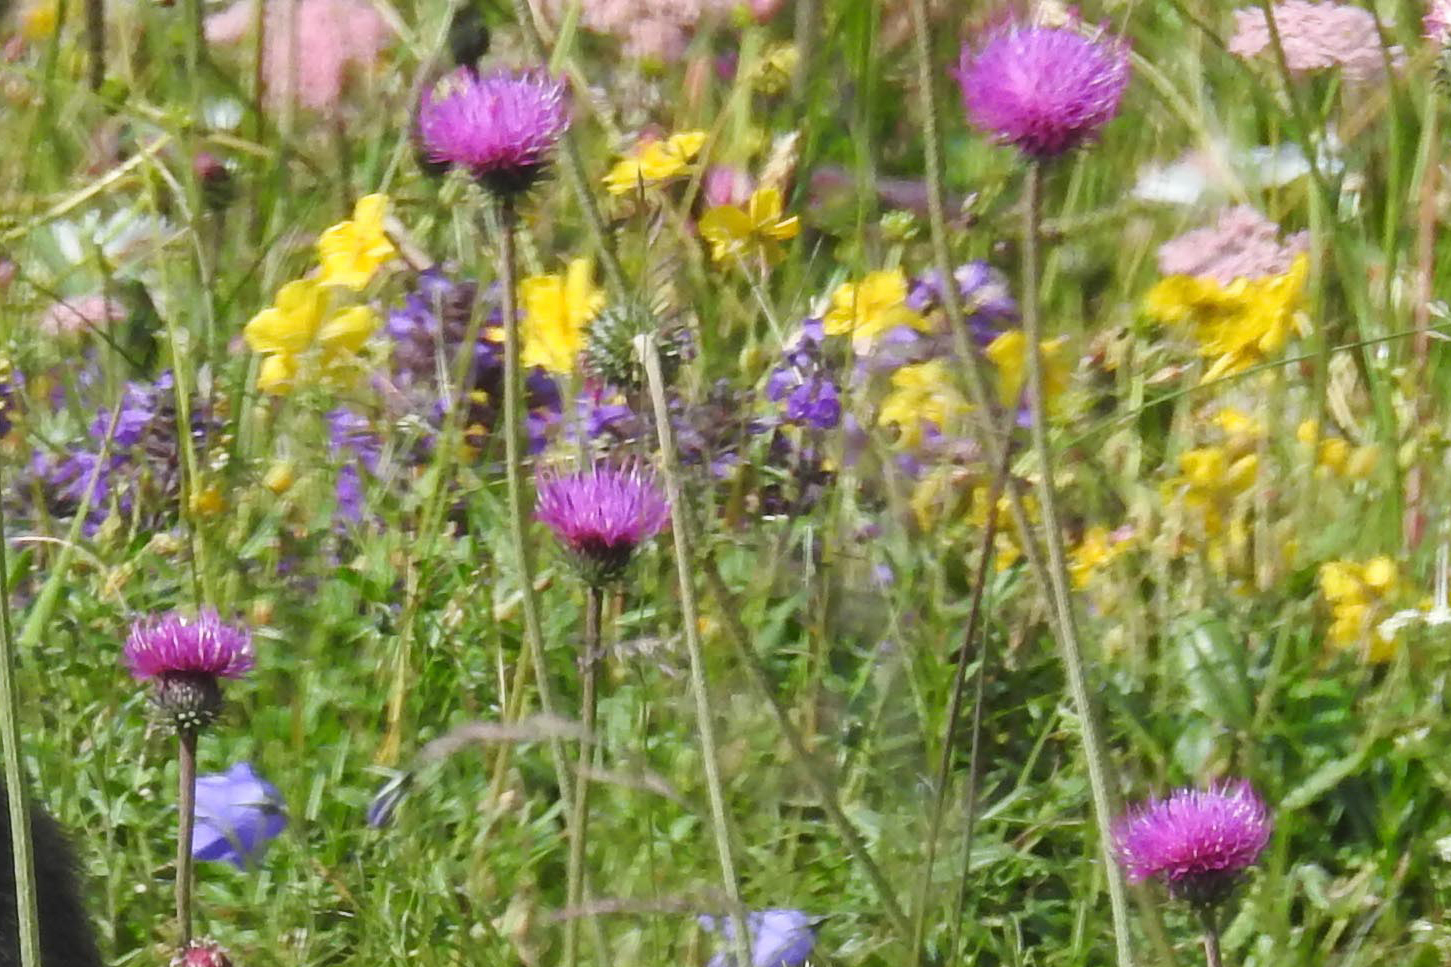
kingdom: Plantae
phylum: Tracheophyta
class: Magnoliopsida
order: Asterales
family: Asteraceae
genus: Carduus
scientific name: Carduus defloratus
